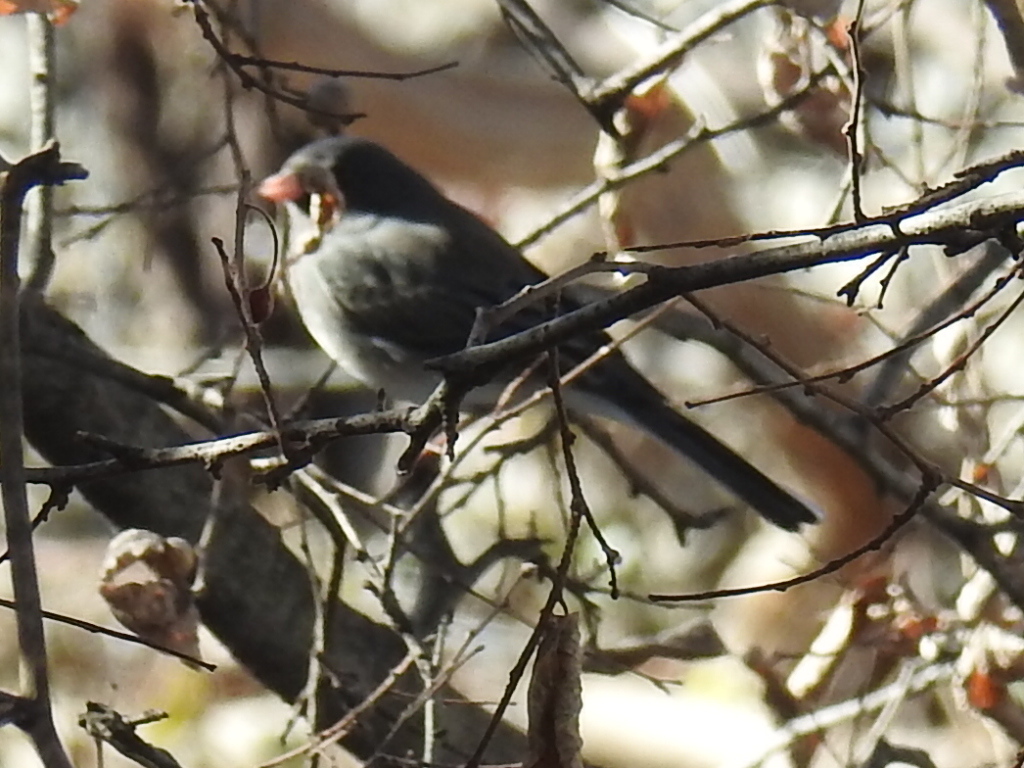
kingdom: Animalia
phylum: Chordata
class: Aves
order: Passeriformes
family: Passerellidae
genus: Junco
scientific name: Junco hyemalis
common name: Dark-eyed junco
